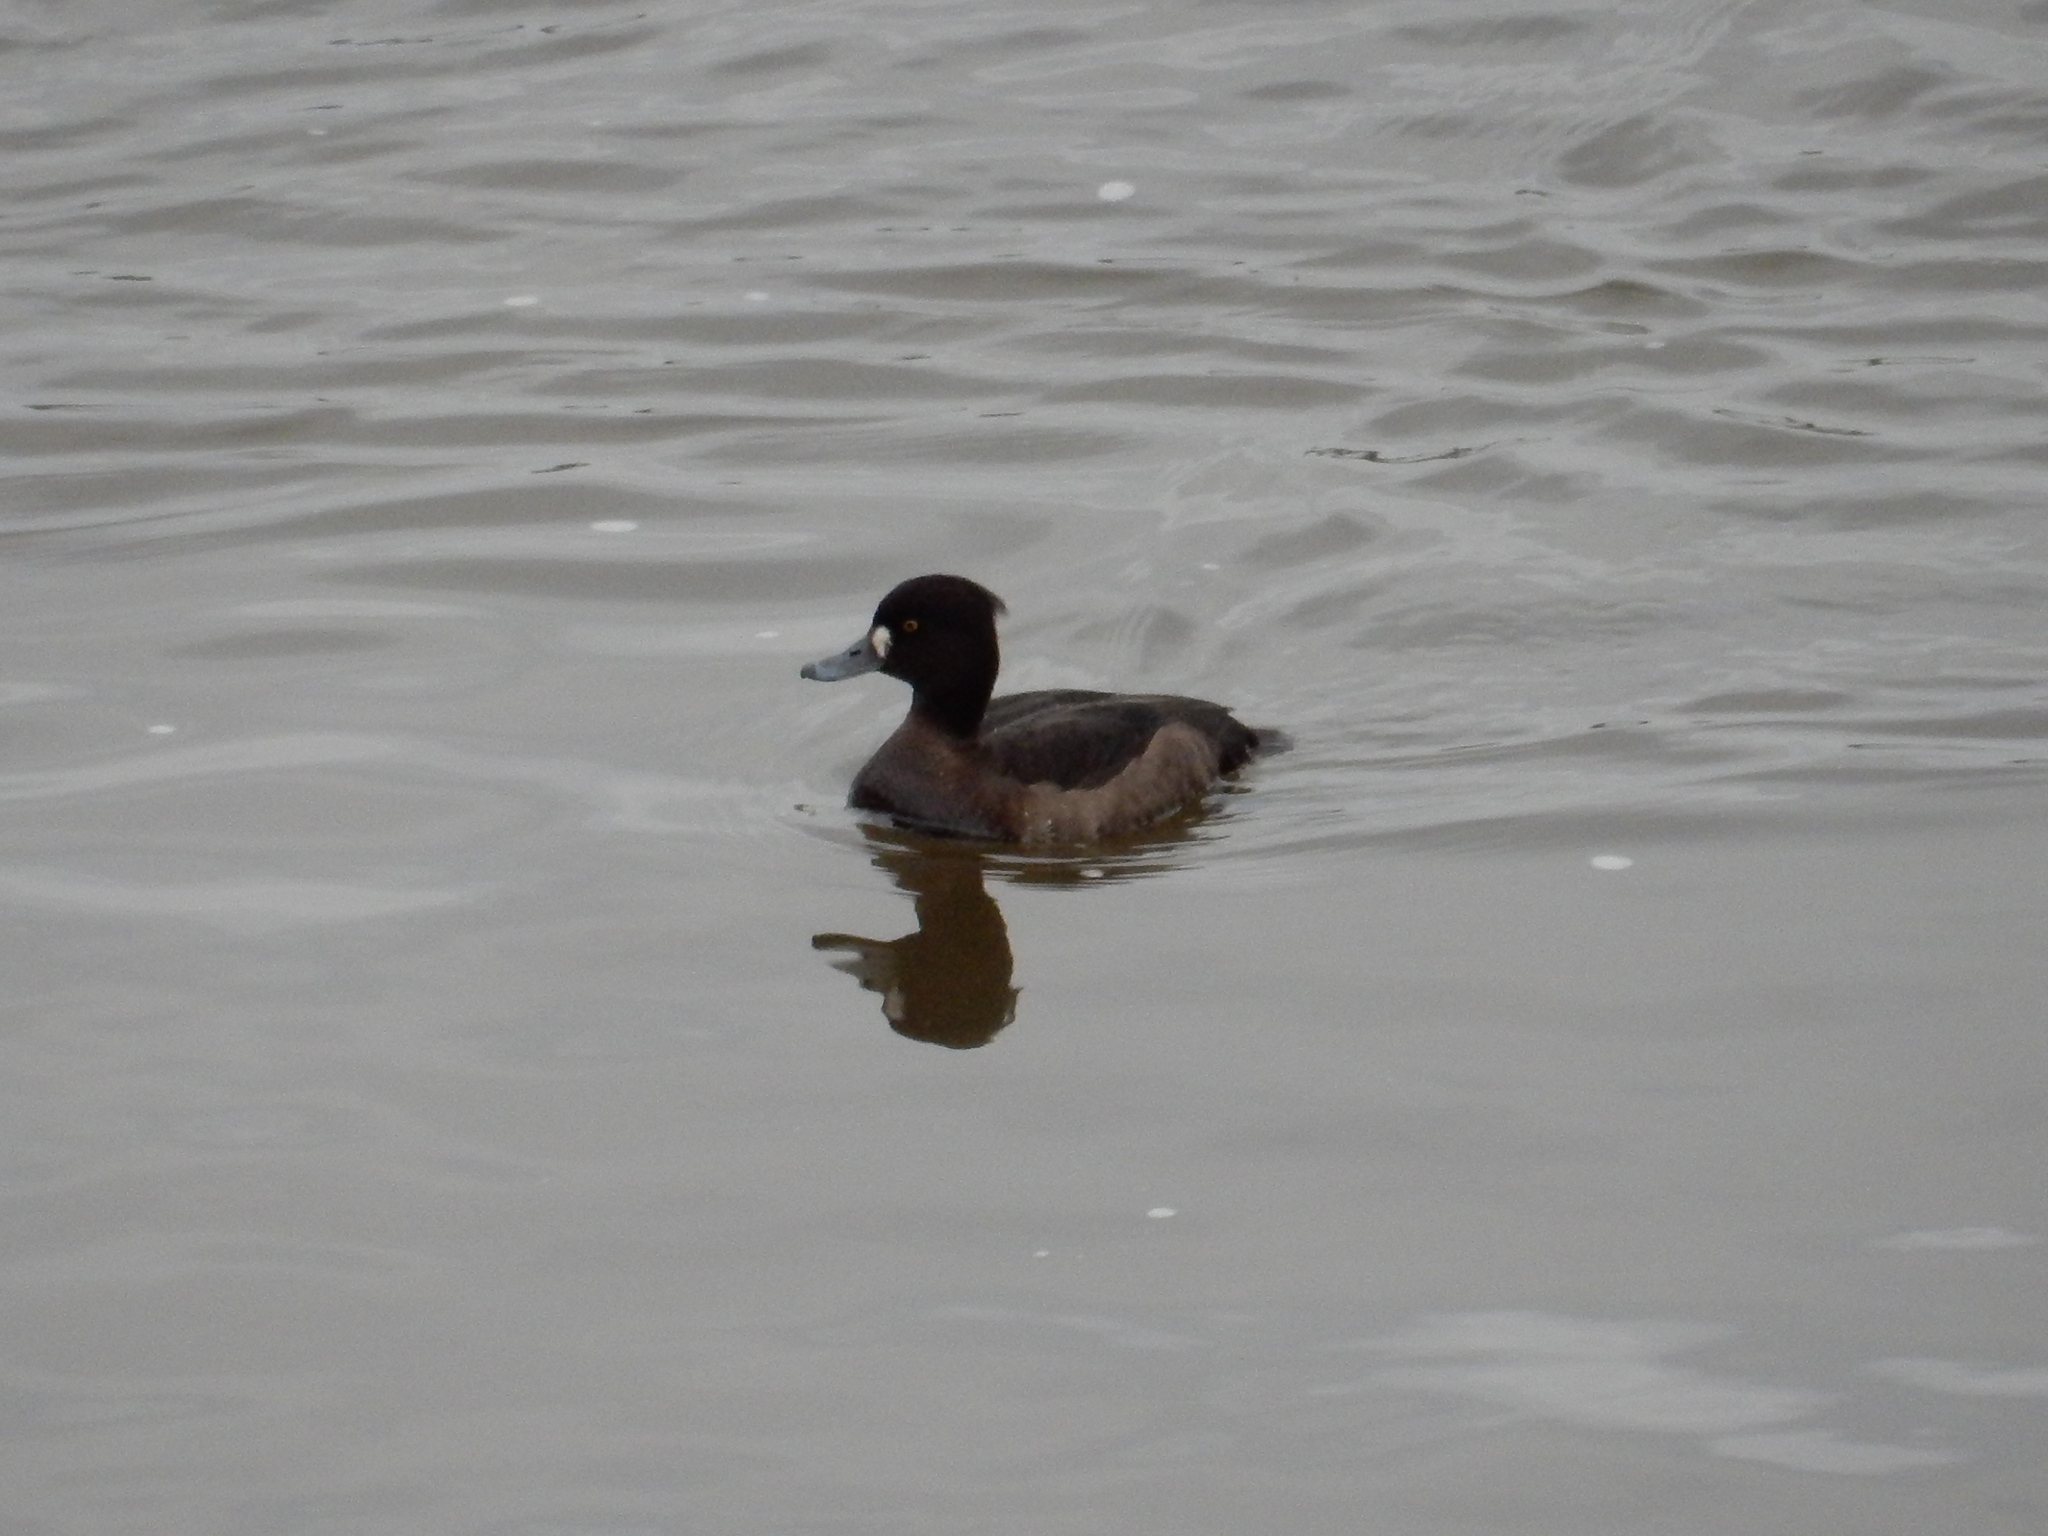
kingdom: Animalia
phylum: Chordata
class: Aves
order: Anseriformes
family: Anatidae
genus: Aythya
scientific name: Aythya fuligula
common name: Tufted duck
